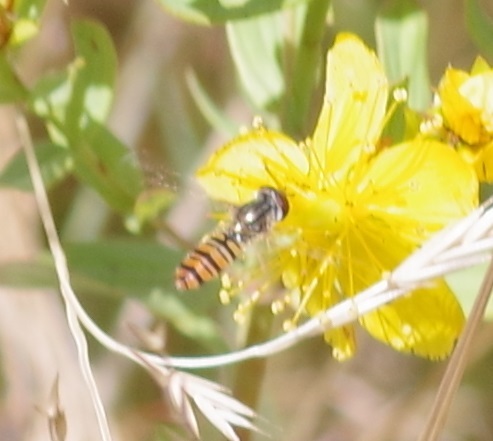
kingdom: Animalia
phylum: Arthropoda
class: Insecta
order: Diptera
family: Syrphidae
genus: Episyrphus
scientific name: Episyrphus balteatus
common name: Marmalade hoverfly
